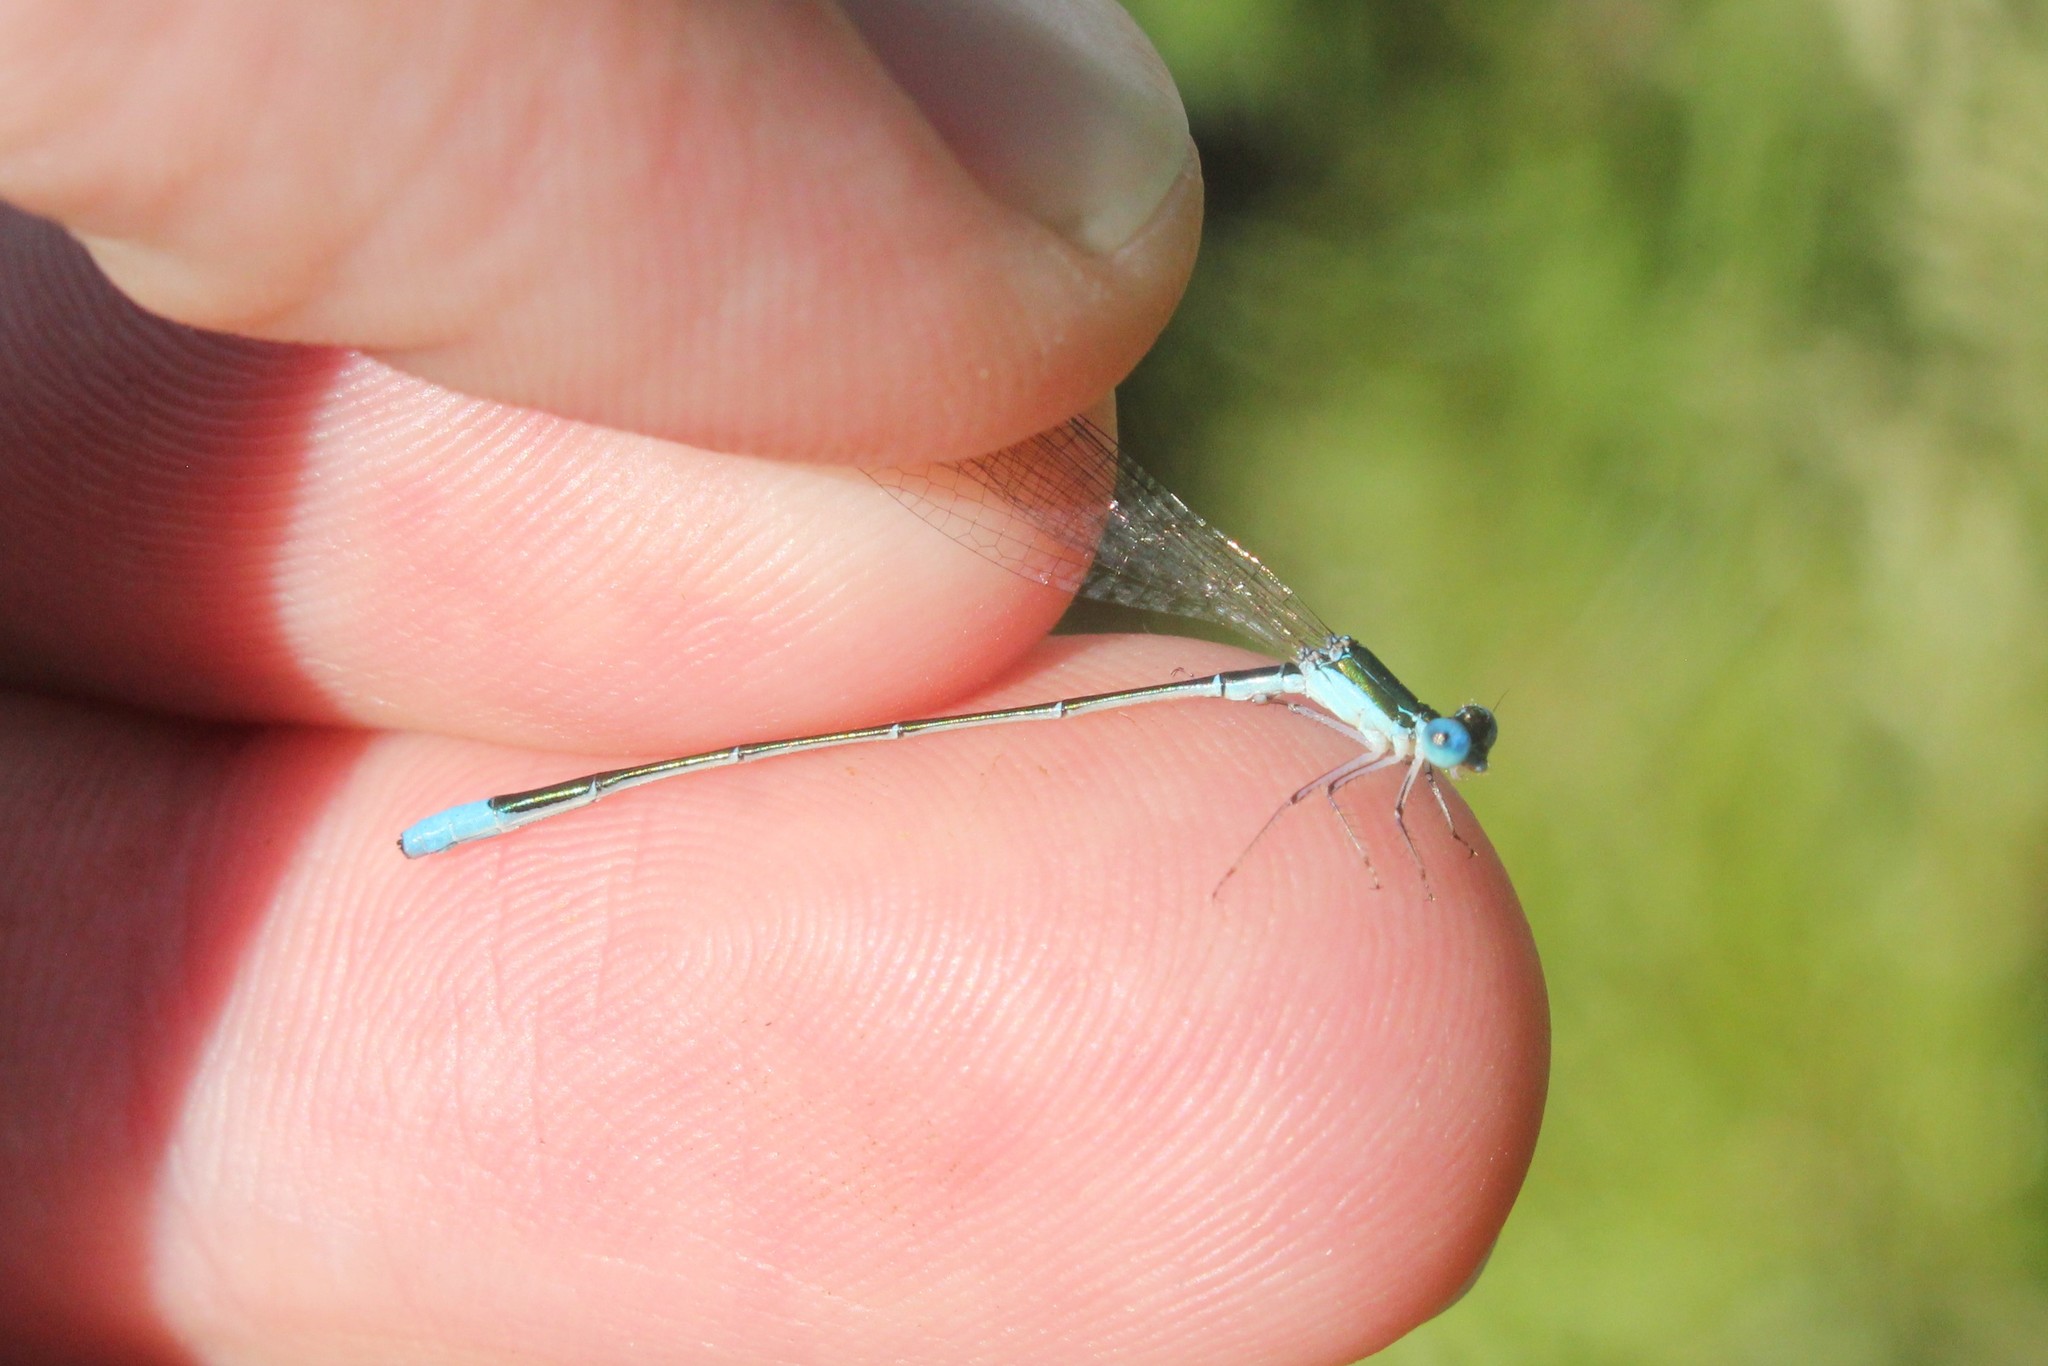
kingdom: Animalia
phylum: Arthropoda
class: Insecta
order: Odonata
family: Coenagrionidae
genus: Nehalennia
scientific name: Nehalennia gracilis
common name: Sphagnum sprite
